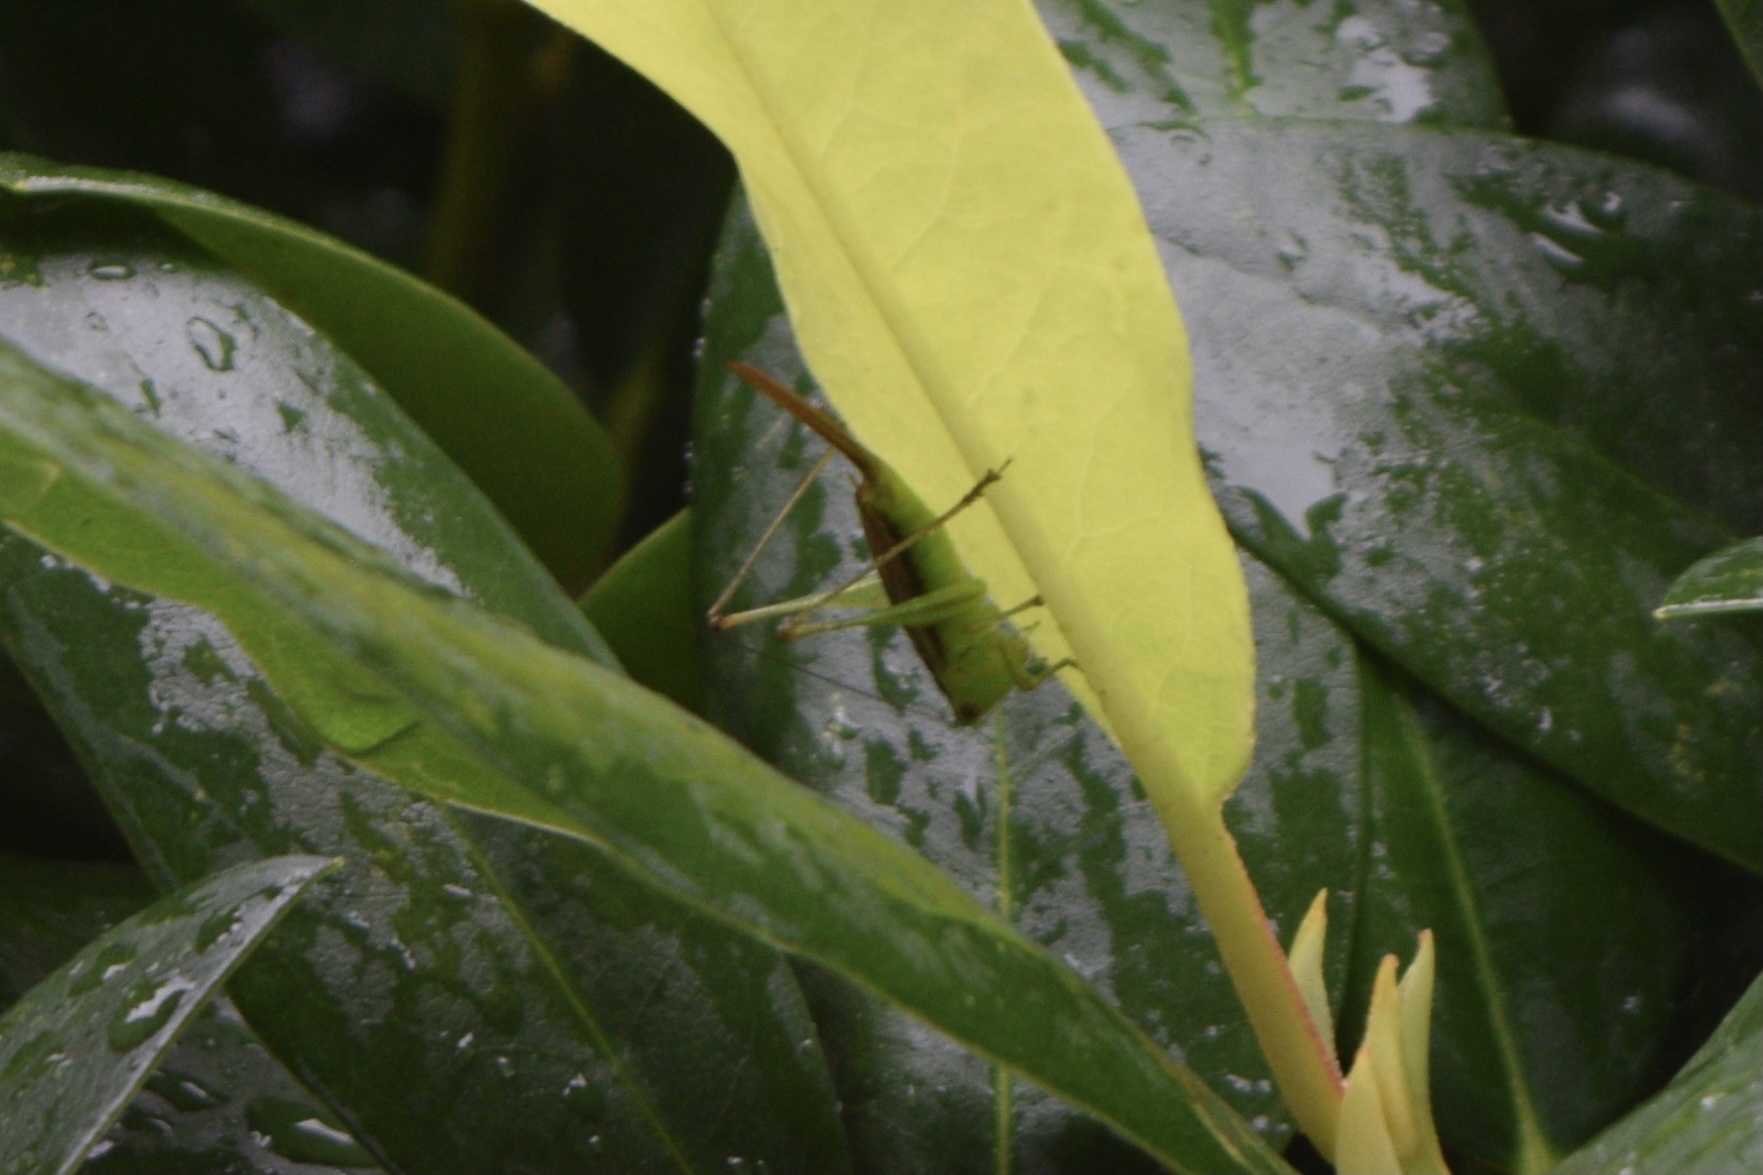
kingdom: Animalia
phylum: Arthropoda
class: Insecta
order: Orthoptera
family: Tettigoniidae
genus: Conocephalus
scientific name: Conocephalus brevipennis
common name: Short-winged meadow katydid
